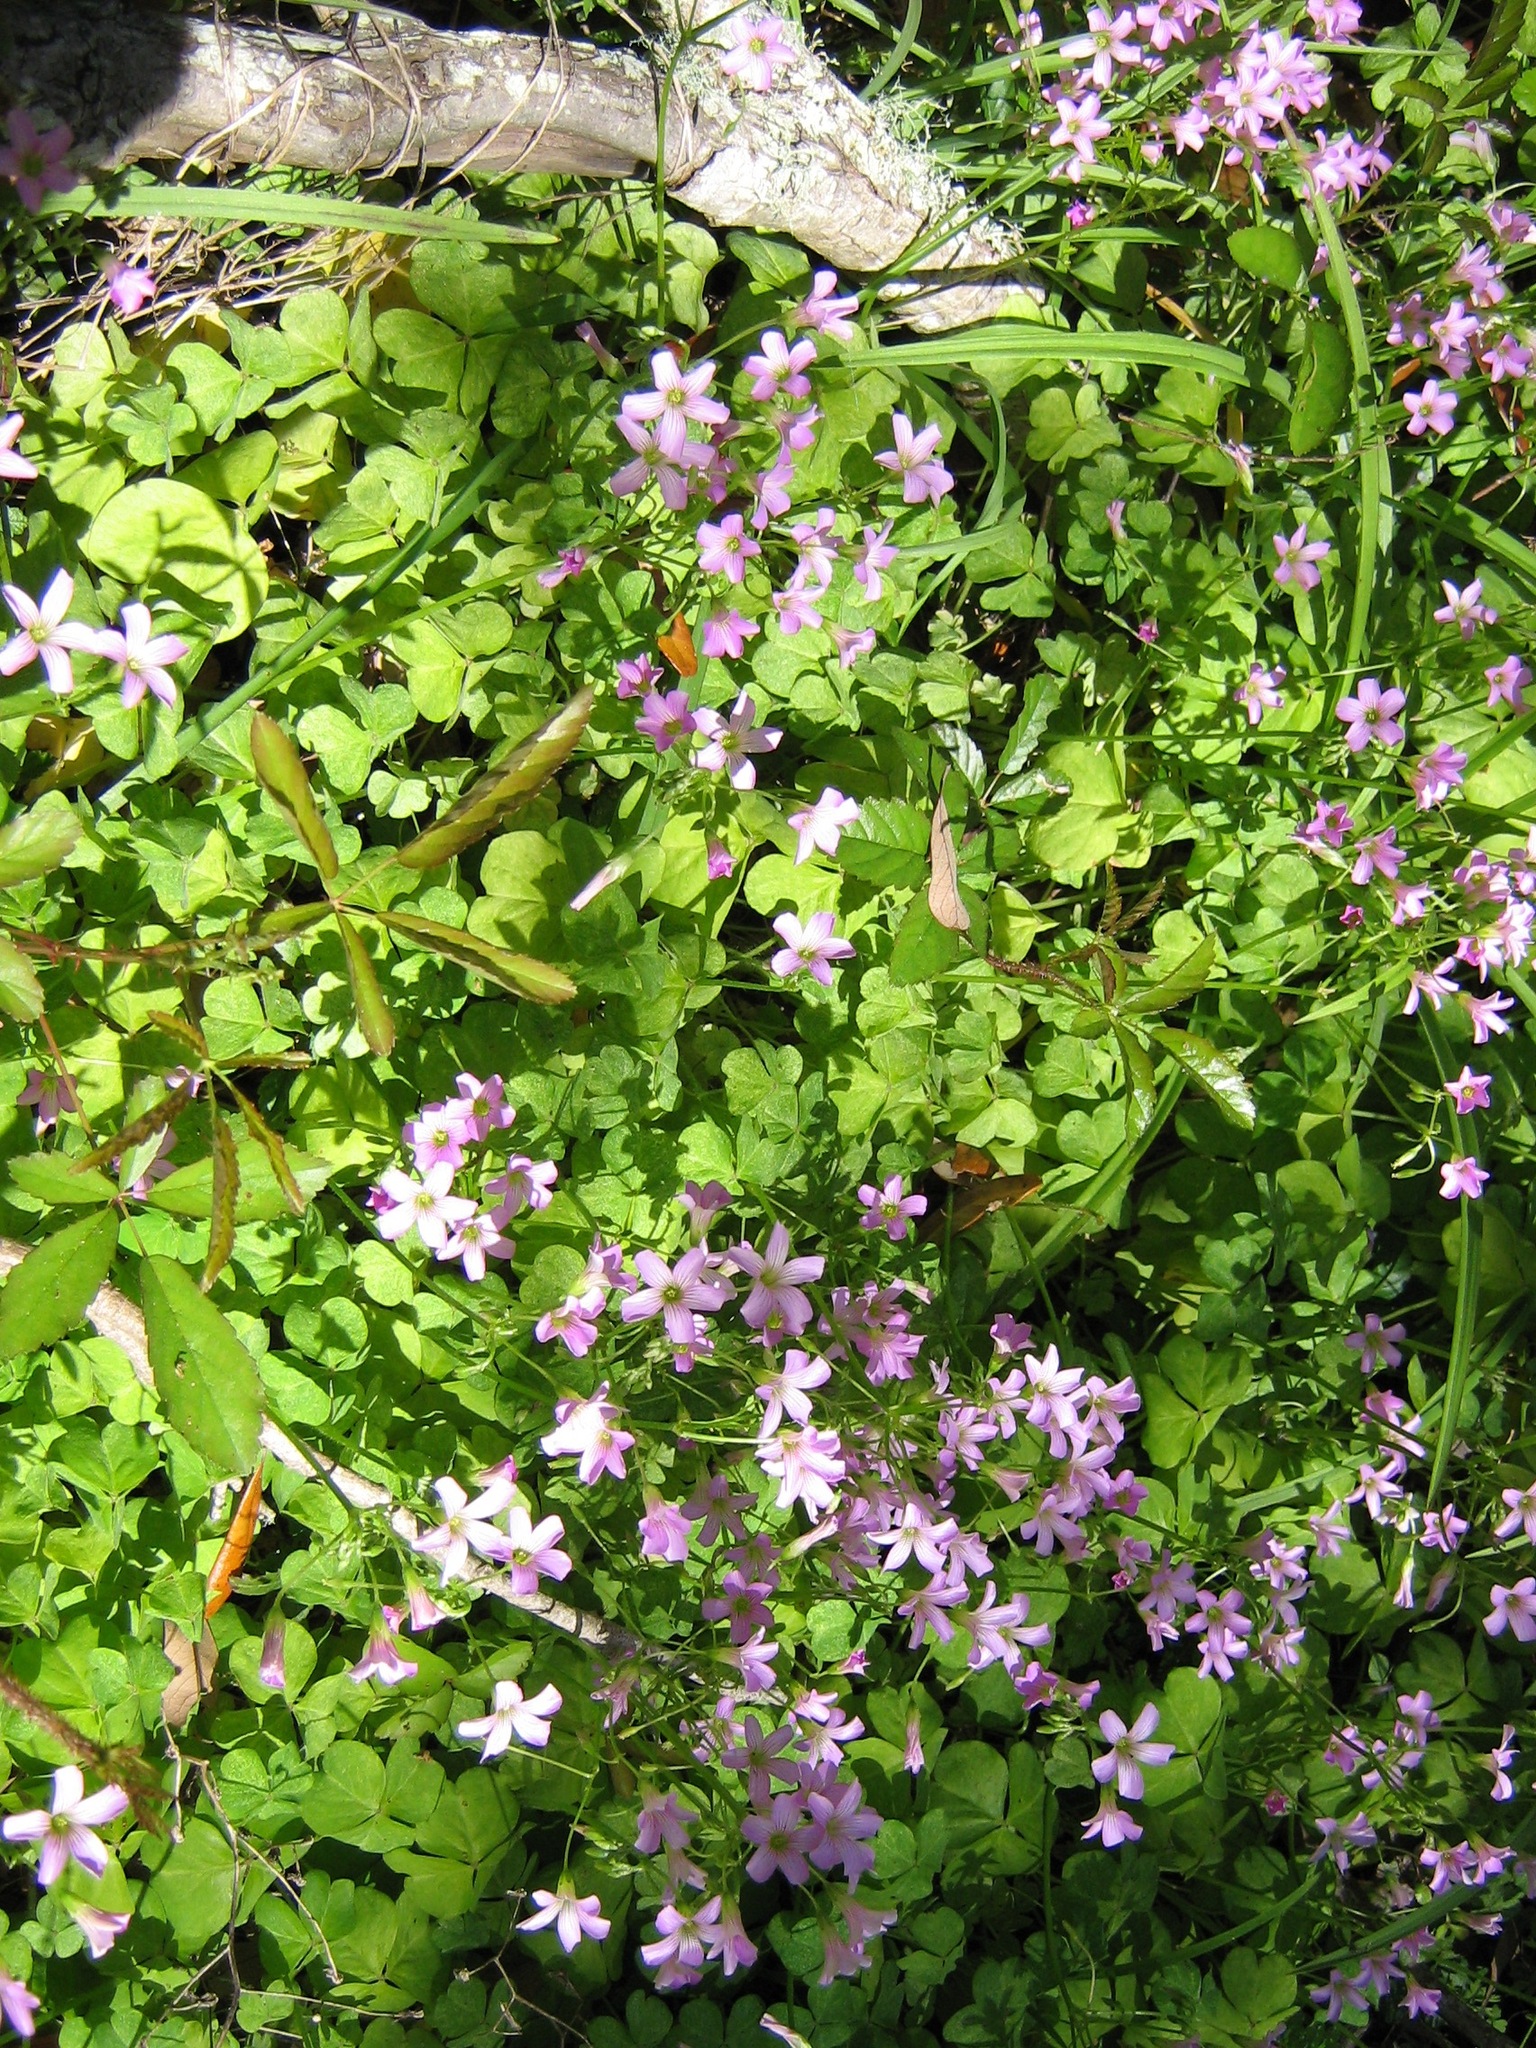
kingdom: Plantae
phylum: Tracheophyta
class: Magnoliopsida
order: Oxalidales
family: Oxalidaceae
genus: Oxalis
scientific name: Oxalis debilis
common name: Large-flowered pink-sorrel
